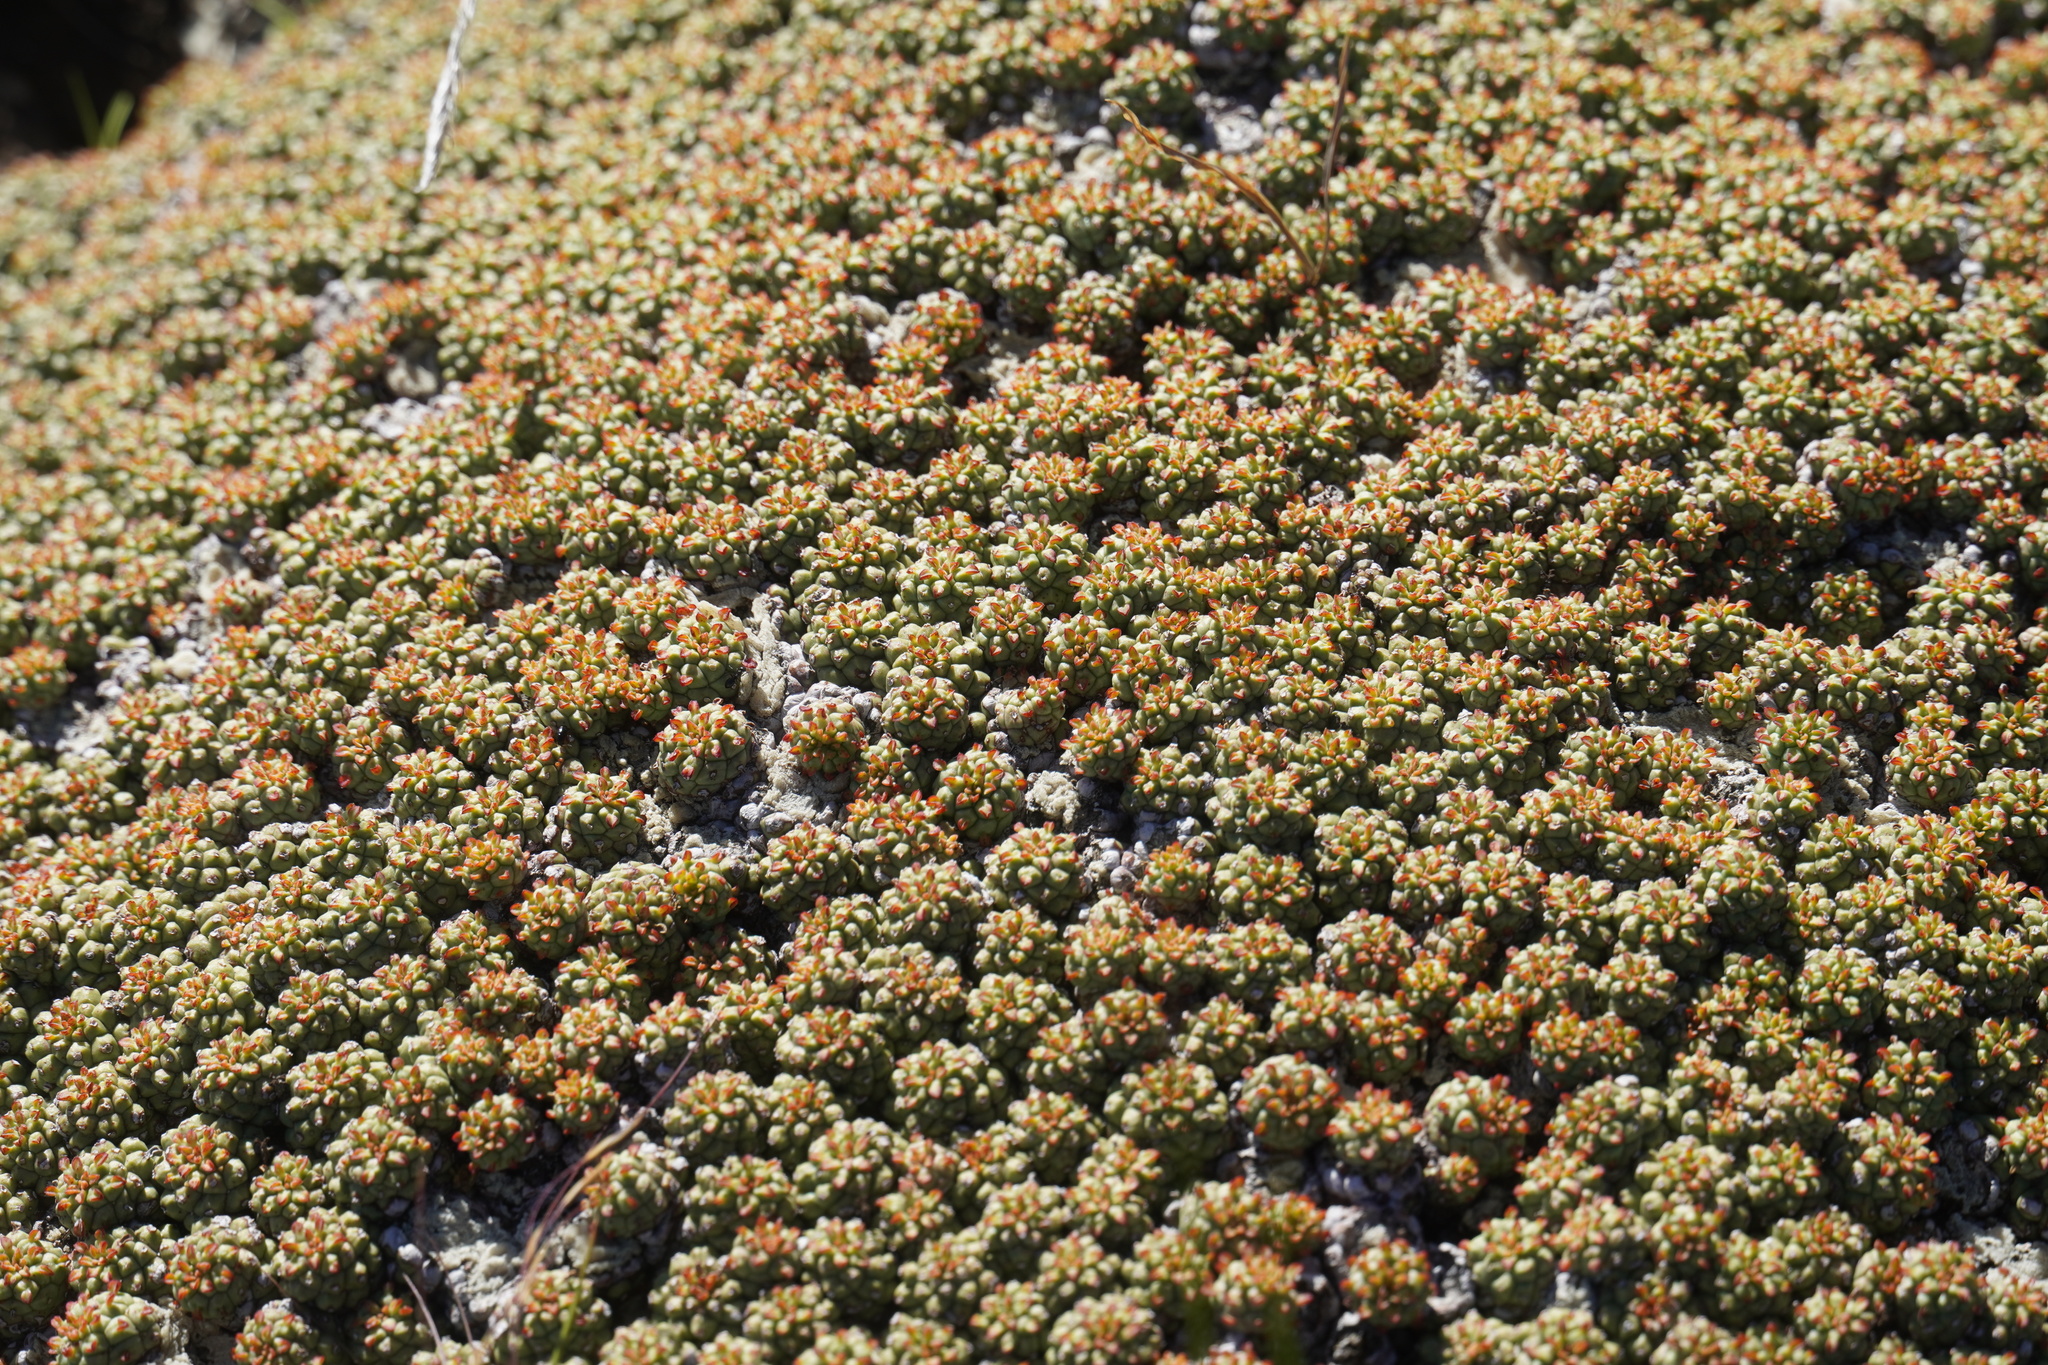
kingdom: Plantae
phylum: Tracheophyta
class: Magnoliopsida
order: Malpighiales
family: Euphorbiaceae
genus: Euphorbia
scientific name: Euphorbia clavarioides
